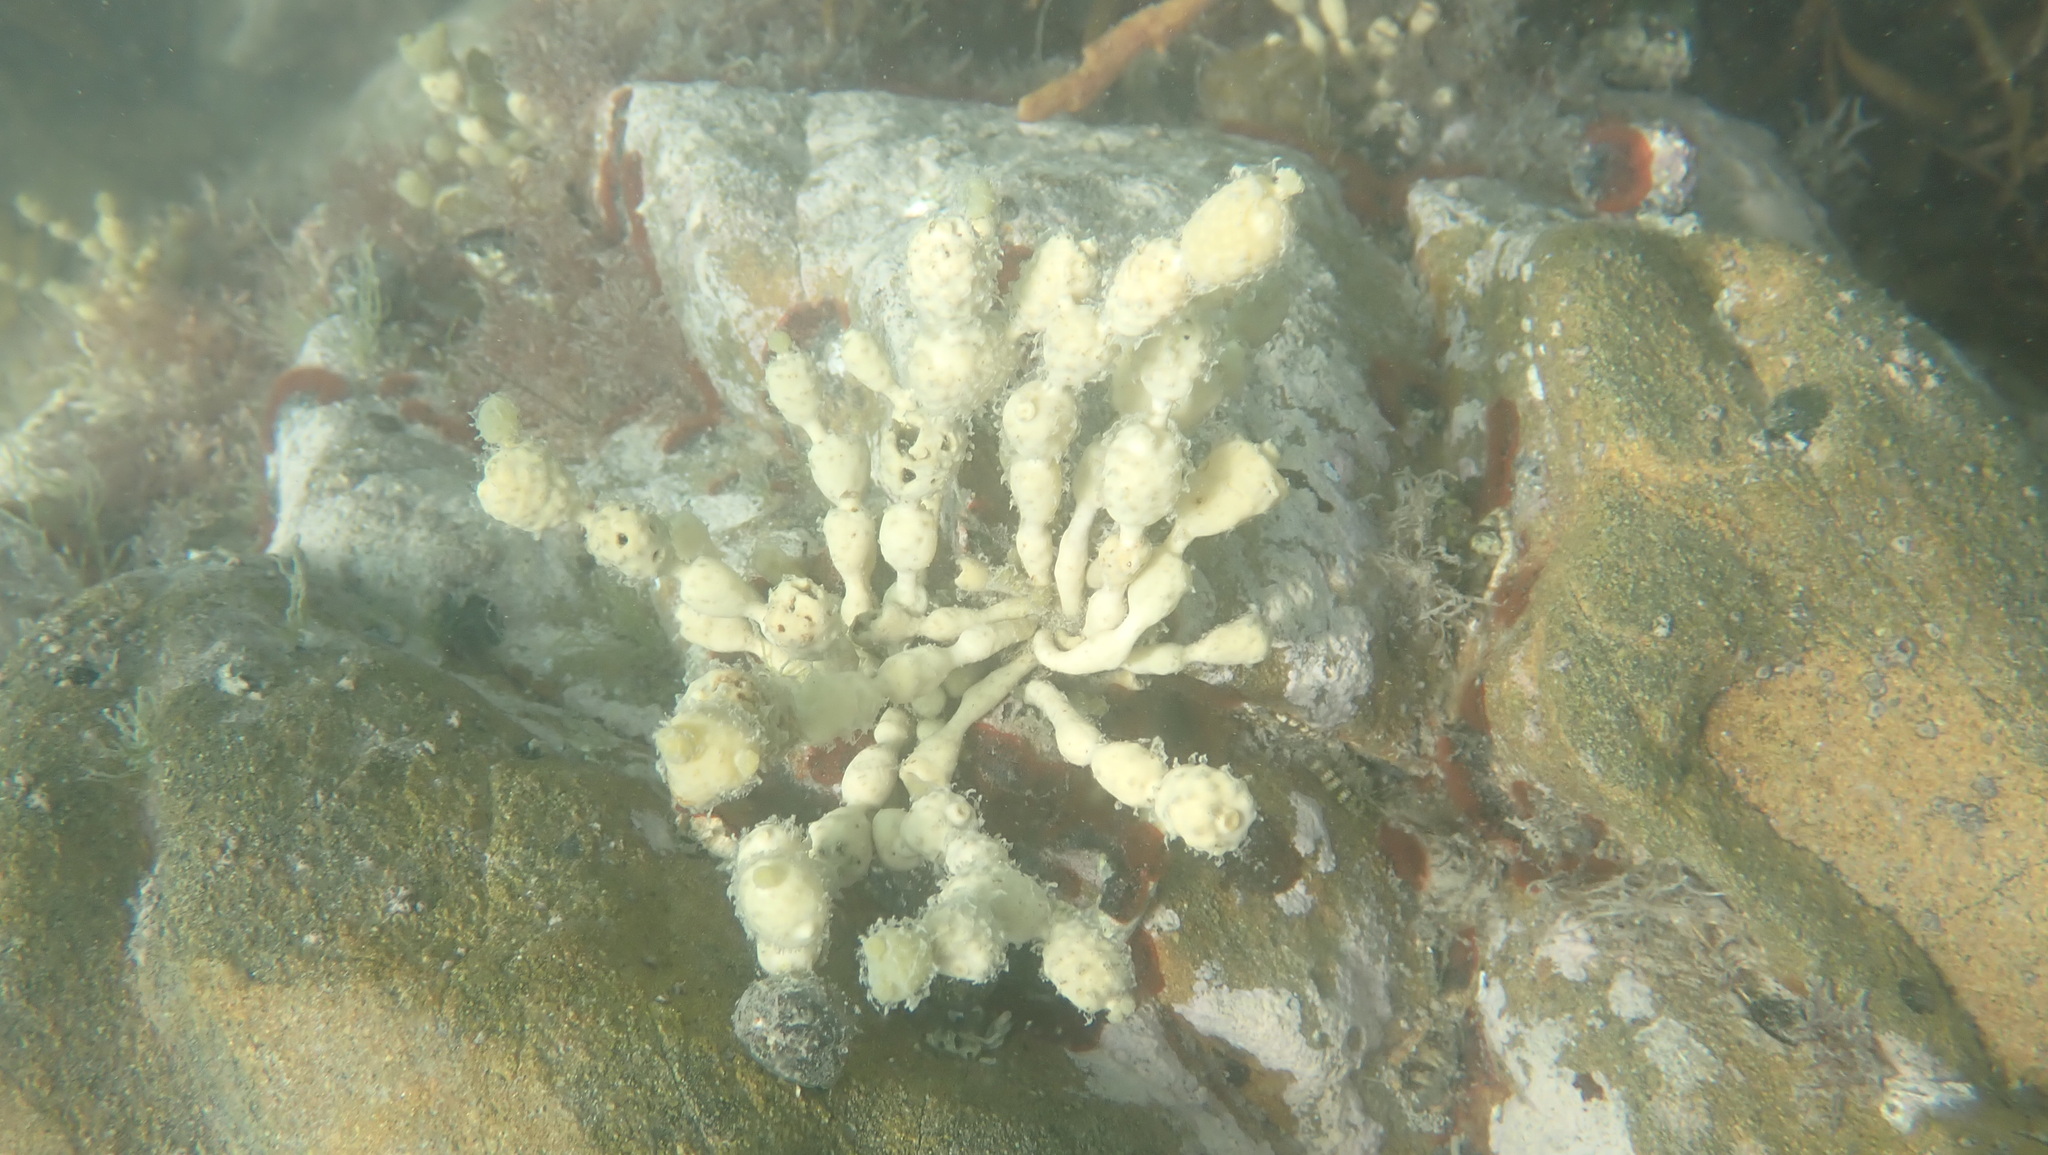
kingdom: Chromista
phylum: Ochrophyta
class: Phaeophyceae
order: Fucales
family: Hormosiraceae
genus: Hormosira
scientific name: Hormosira banksii
